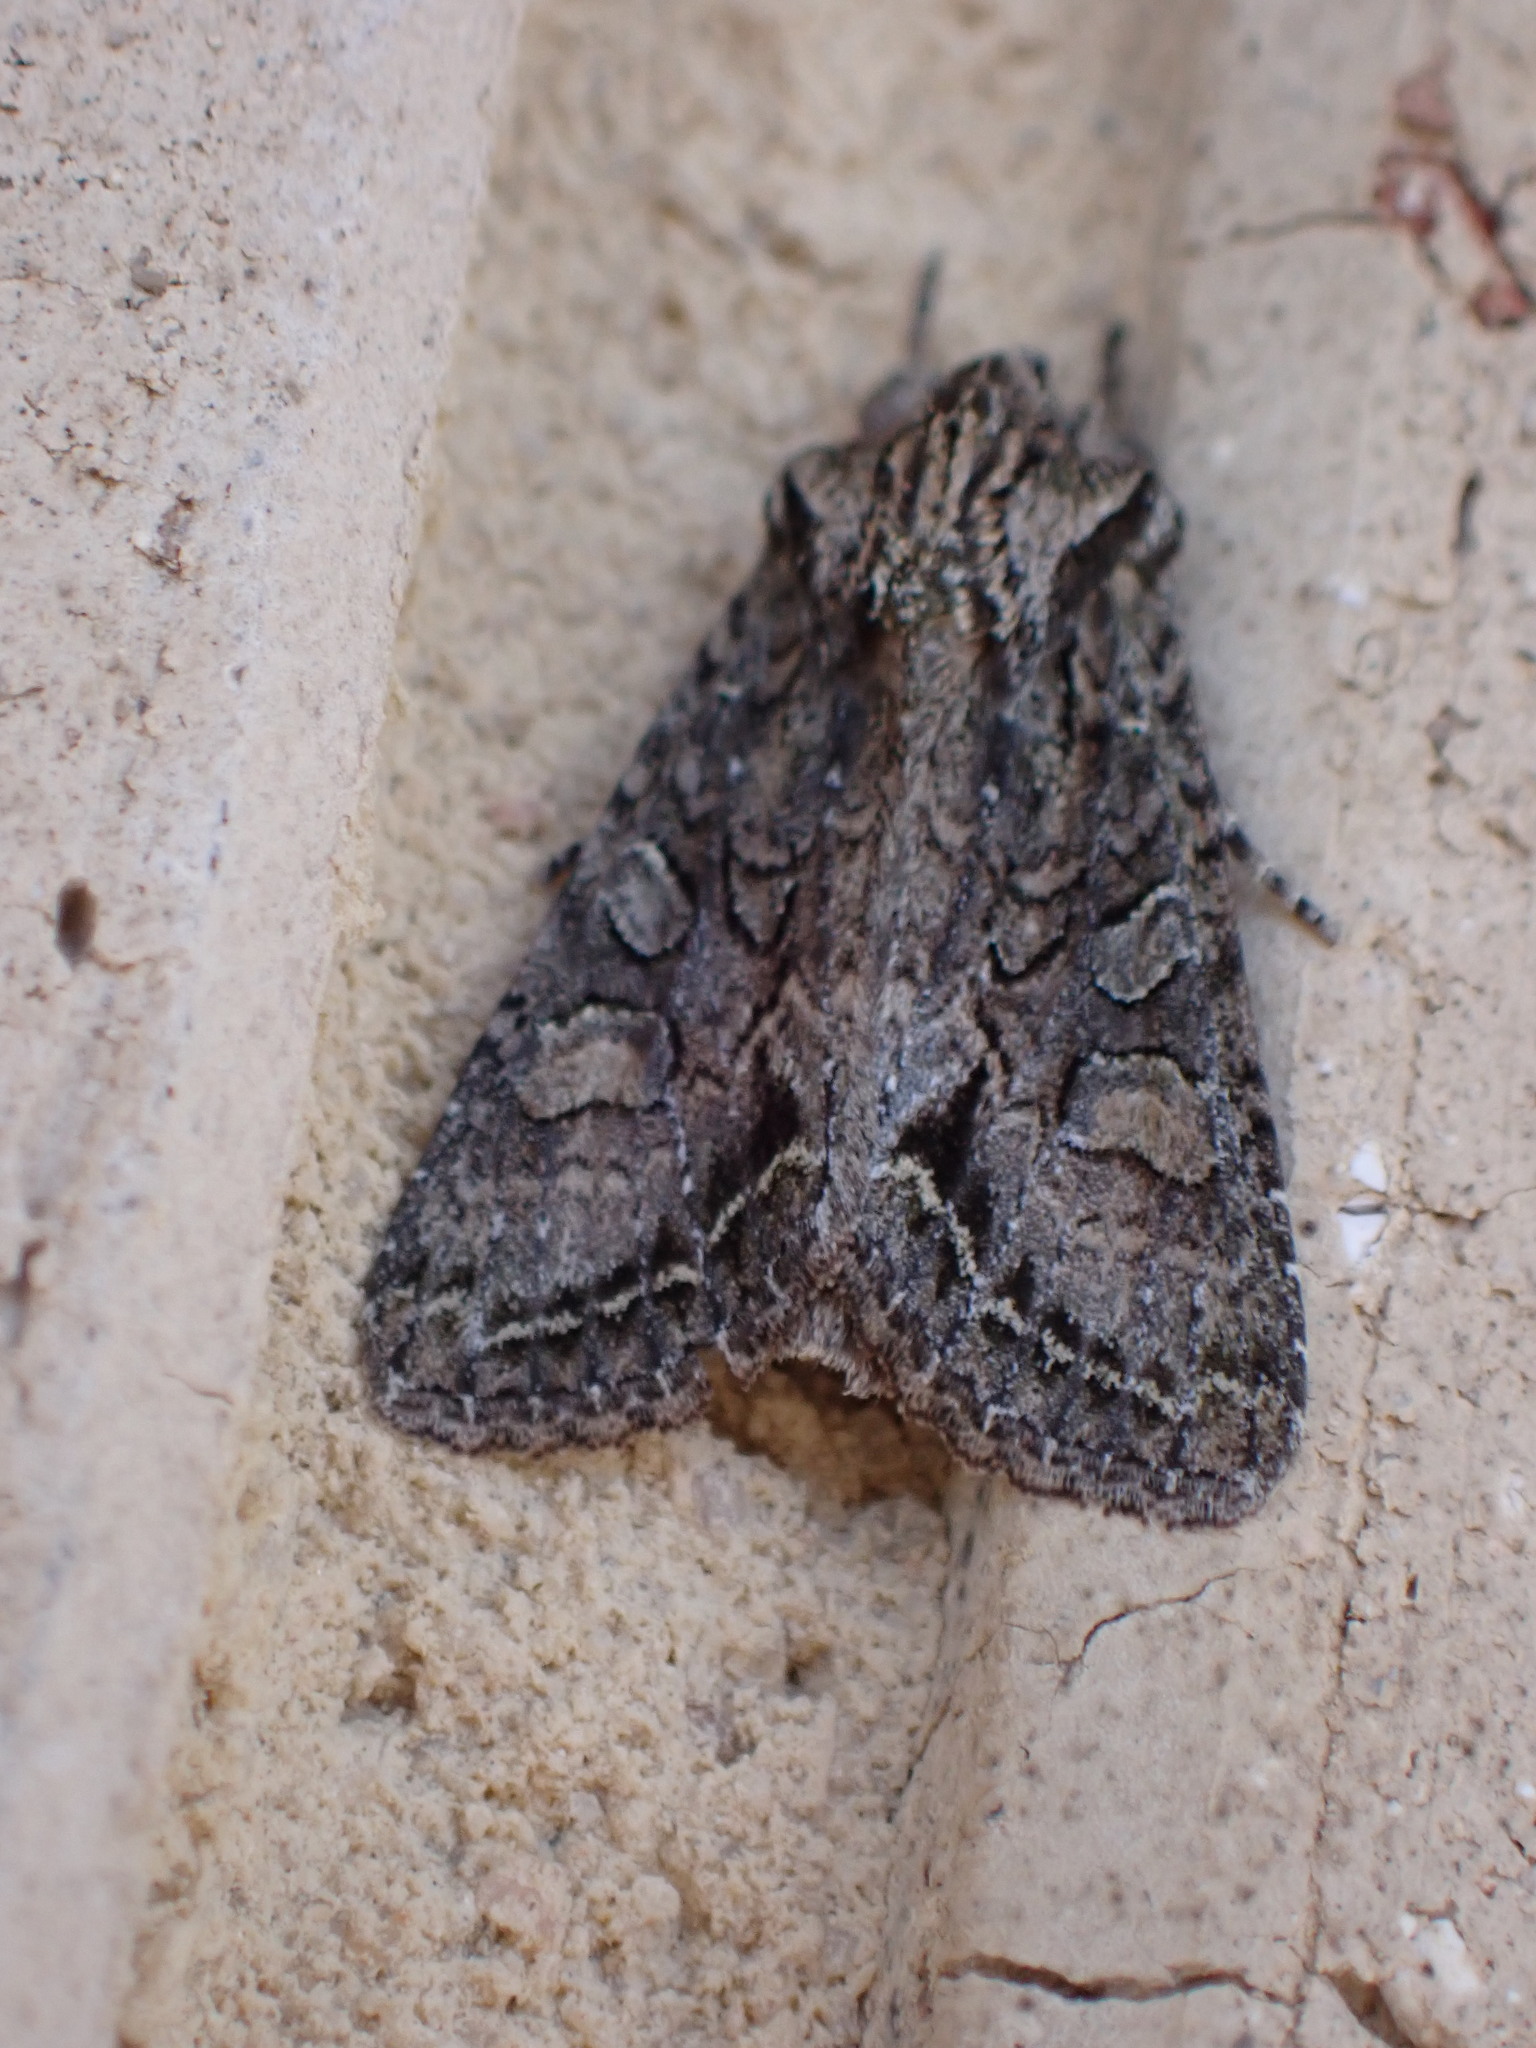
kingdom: Animalia
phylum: Arthropoda
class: Insecta
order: Lepidoptera
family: Noctuidae
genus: Ichneutica
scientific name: Ichneutica mutans
